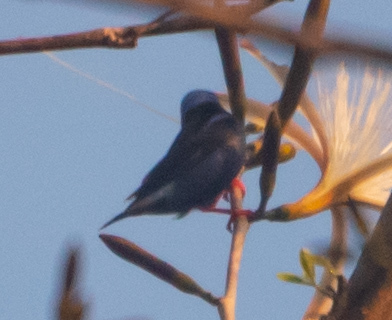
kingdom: Animalia
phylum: Chordata
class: Aves
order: Passeriformes
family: Thraupidae
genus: Cyanerpes
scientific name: Cyanerpes cyaneus
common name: Red-legged honeycreeper
